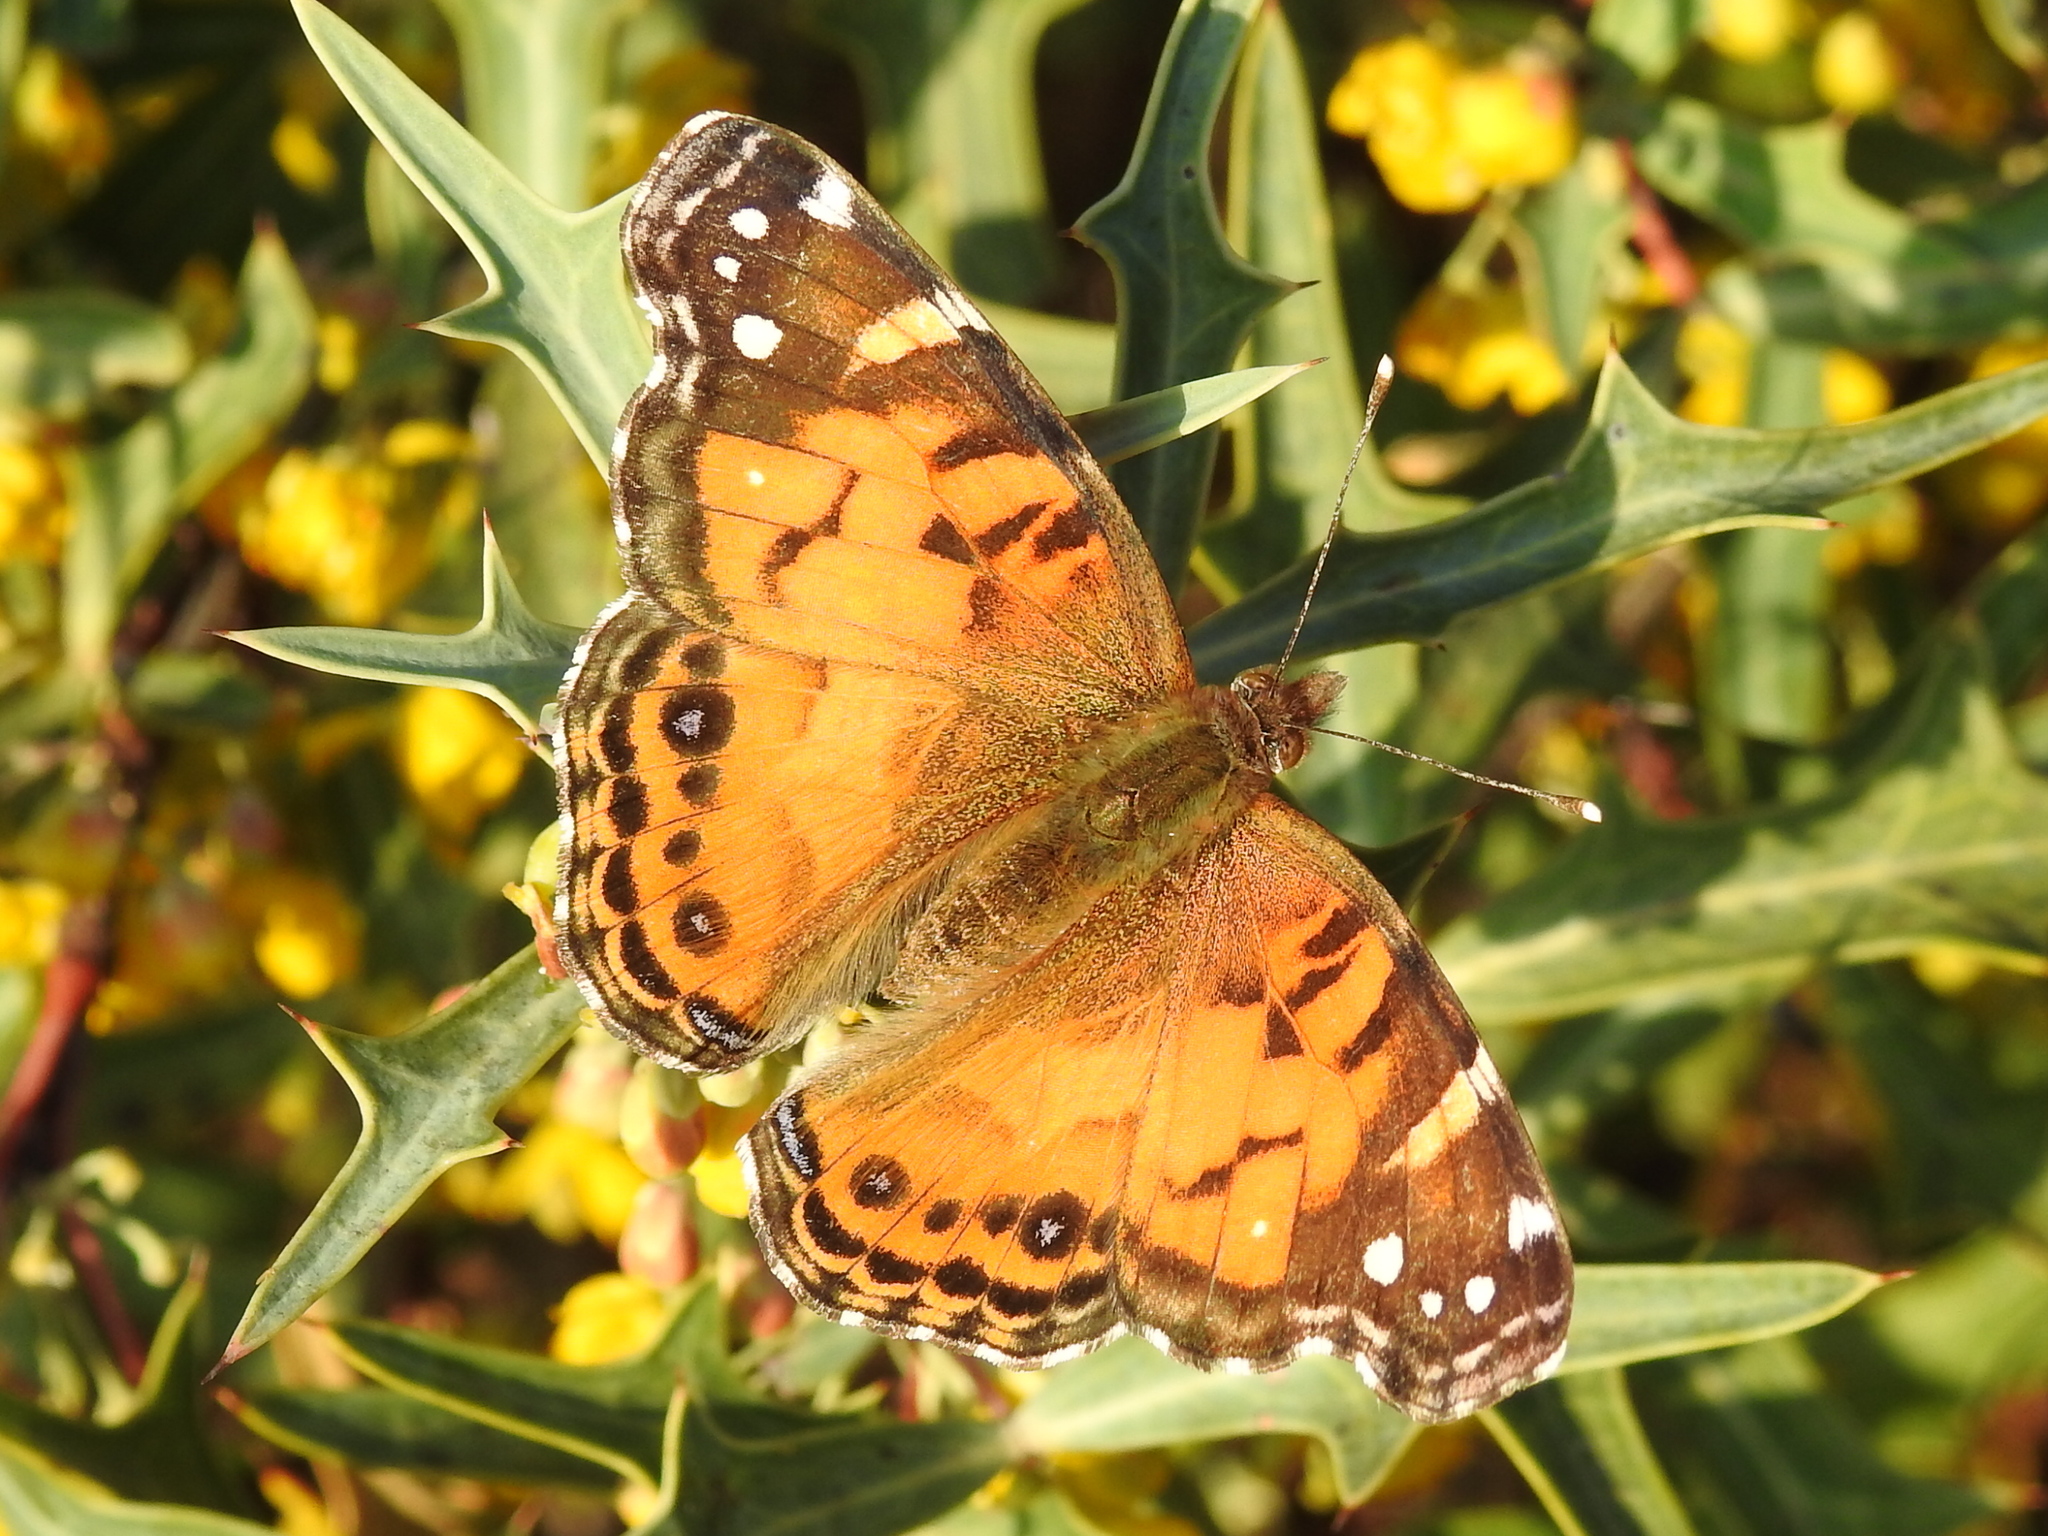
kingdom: Animalia
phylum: Arthropoda
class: Insecta
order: Lepidoptera
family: Nymphalidae
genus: Vanessa
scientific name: Vanessa virginiensis
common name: American lady
